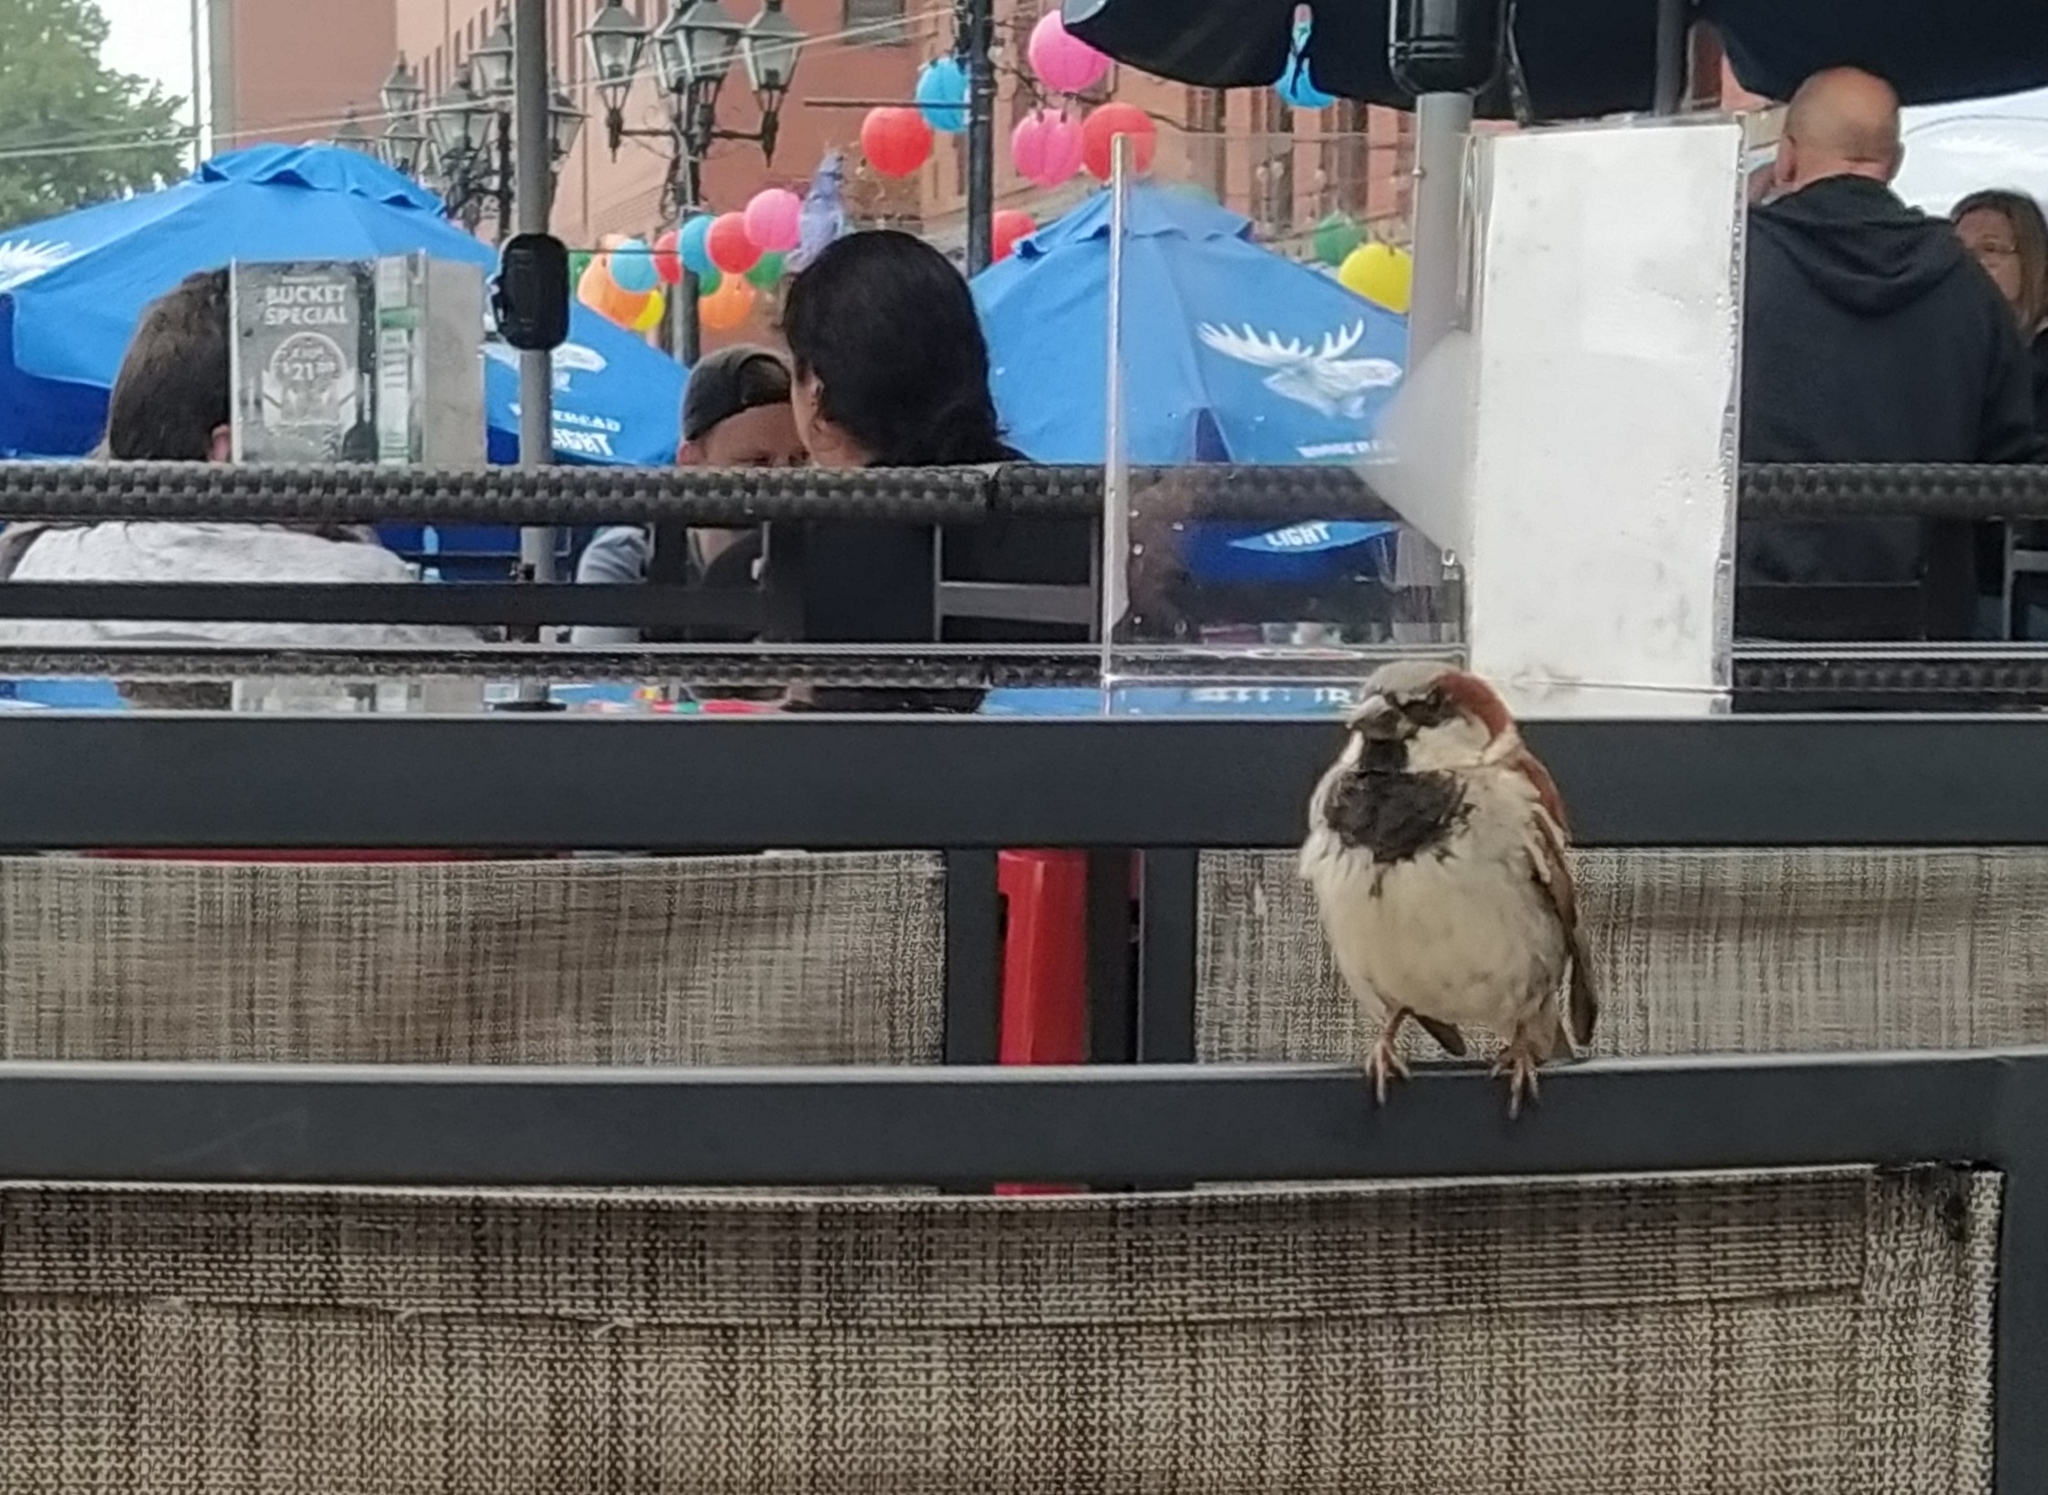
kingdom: Animalia
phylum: Chordata
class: Aves
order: Passeriformes
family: Passeridae
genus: Passer
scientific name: Passer domesticus
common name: House sparrow
